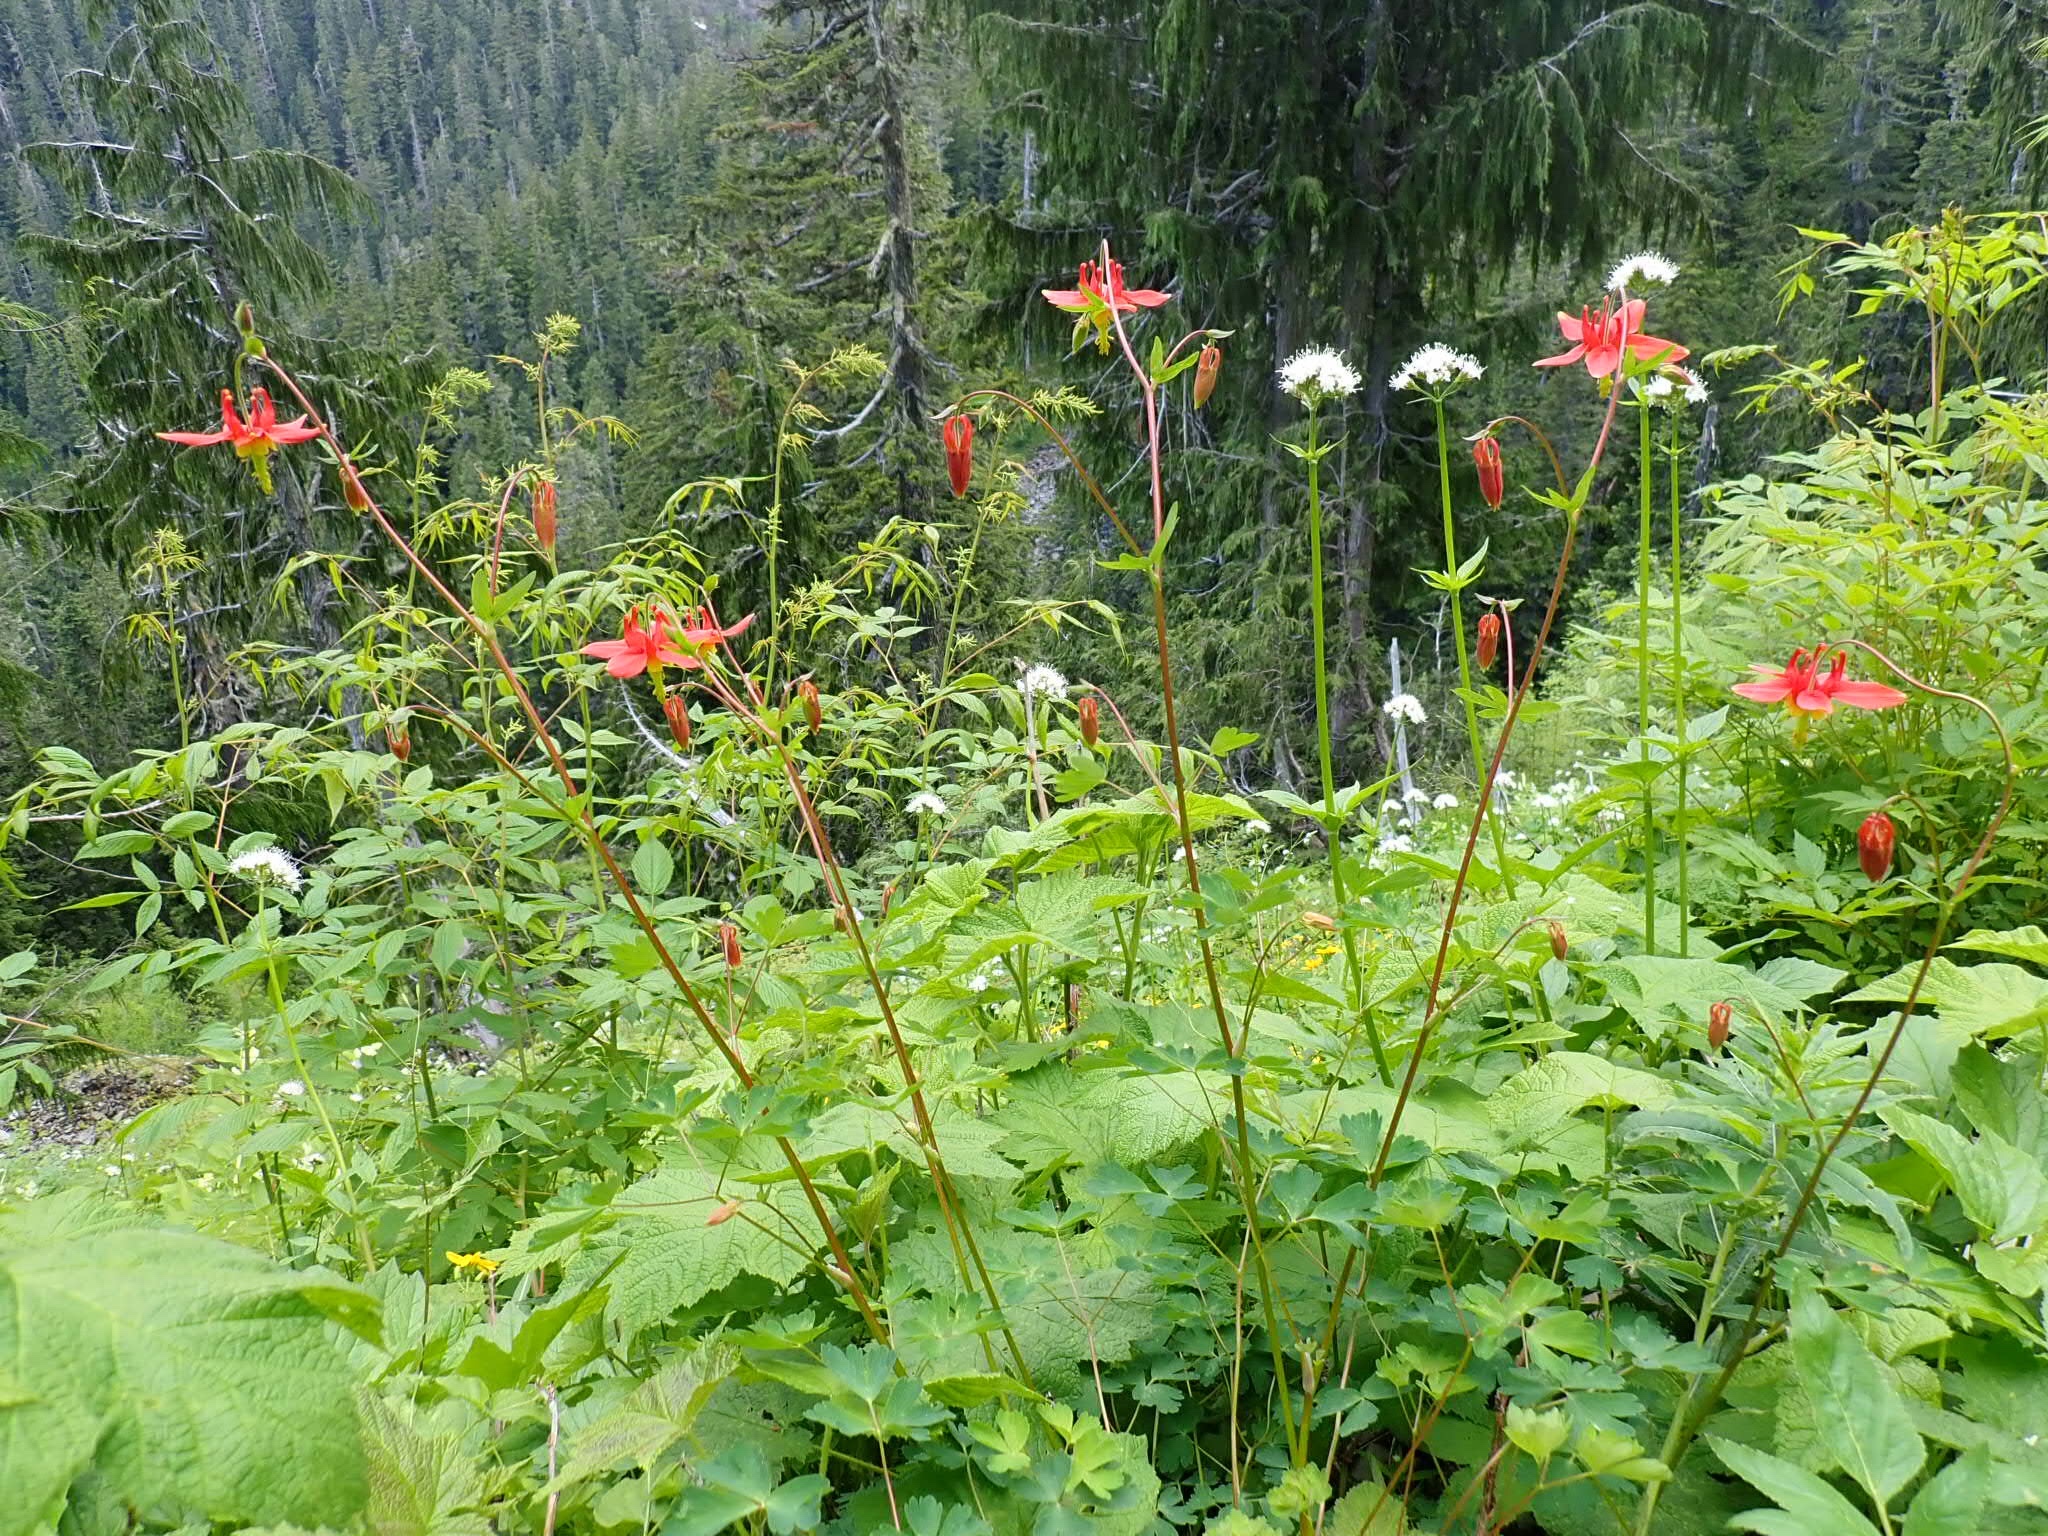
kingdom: Plantae
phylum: Tracheophyta
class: Magnoliopsida
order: Ranunculales
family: Ranunculaceae
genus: Aquilegia
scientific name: Aquilegia formosa
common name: Sitka columbine
